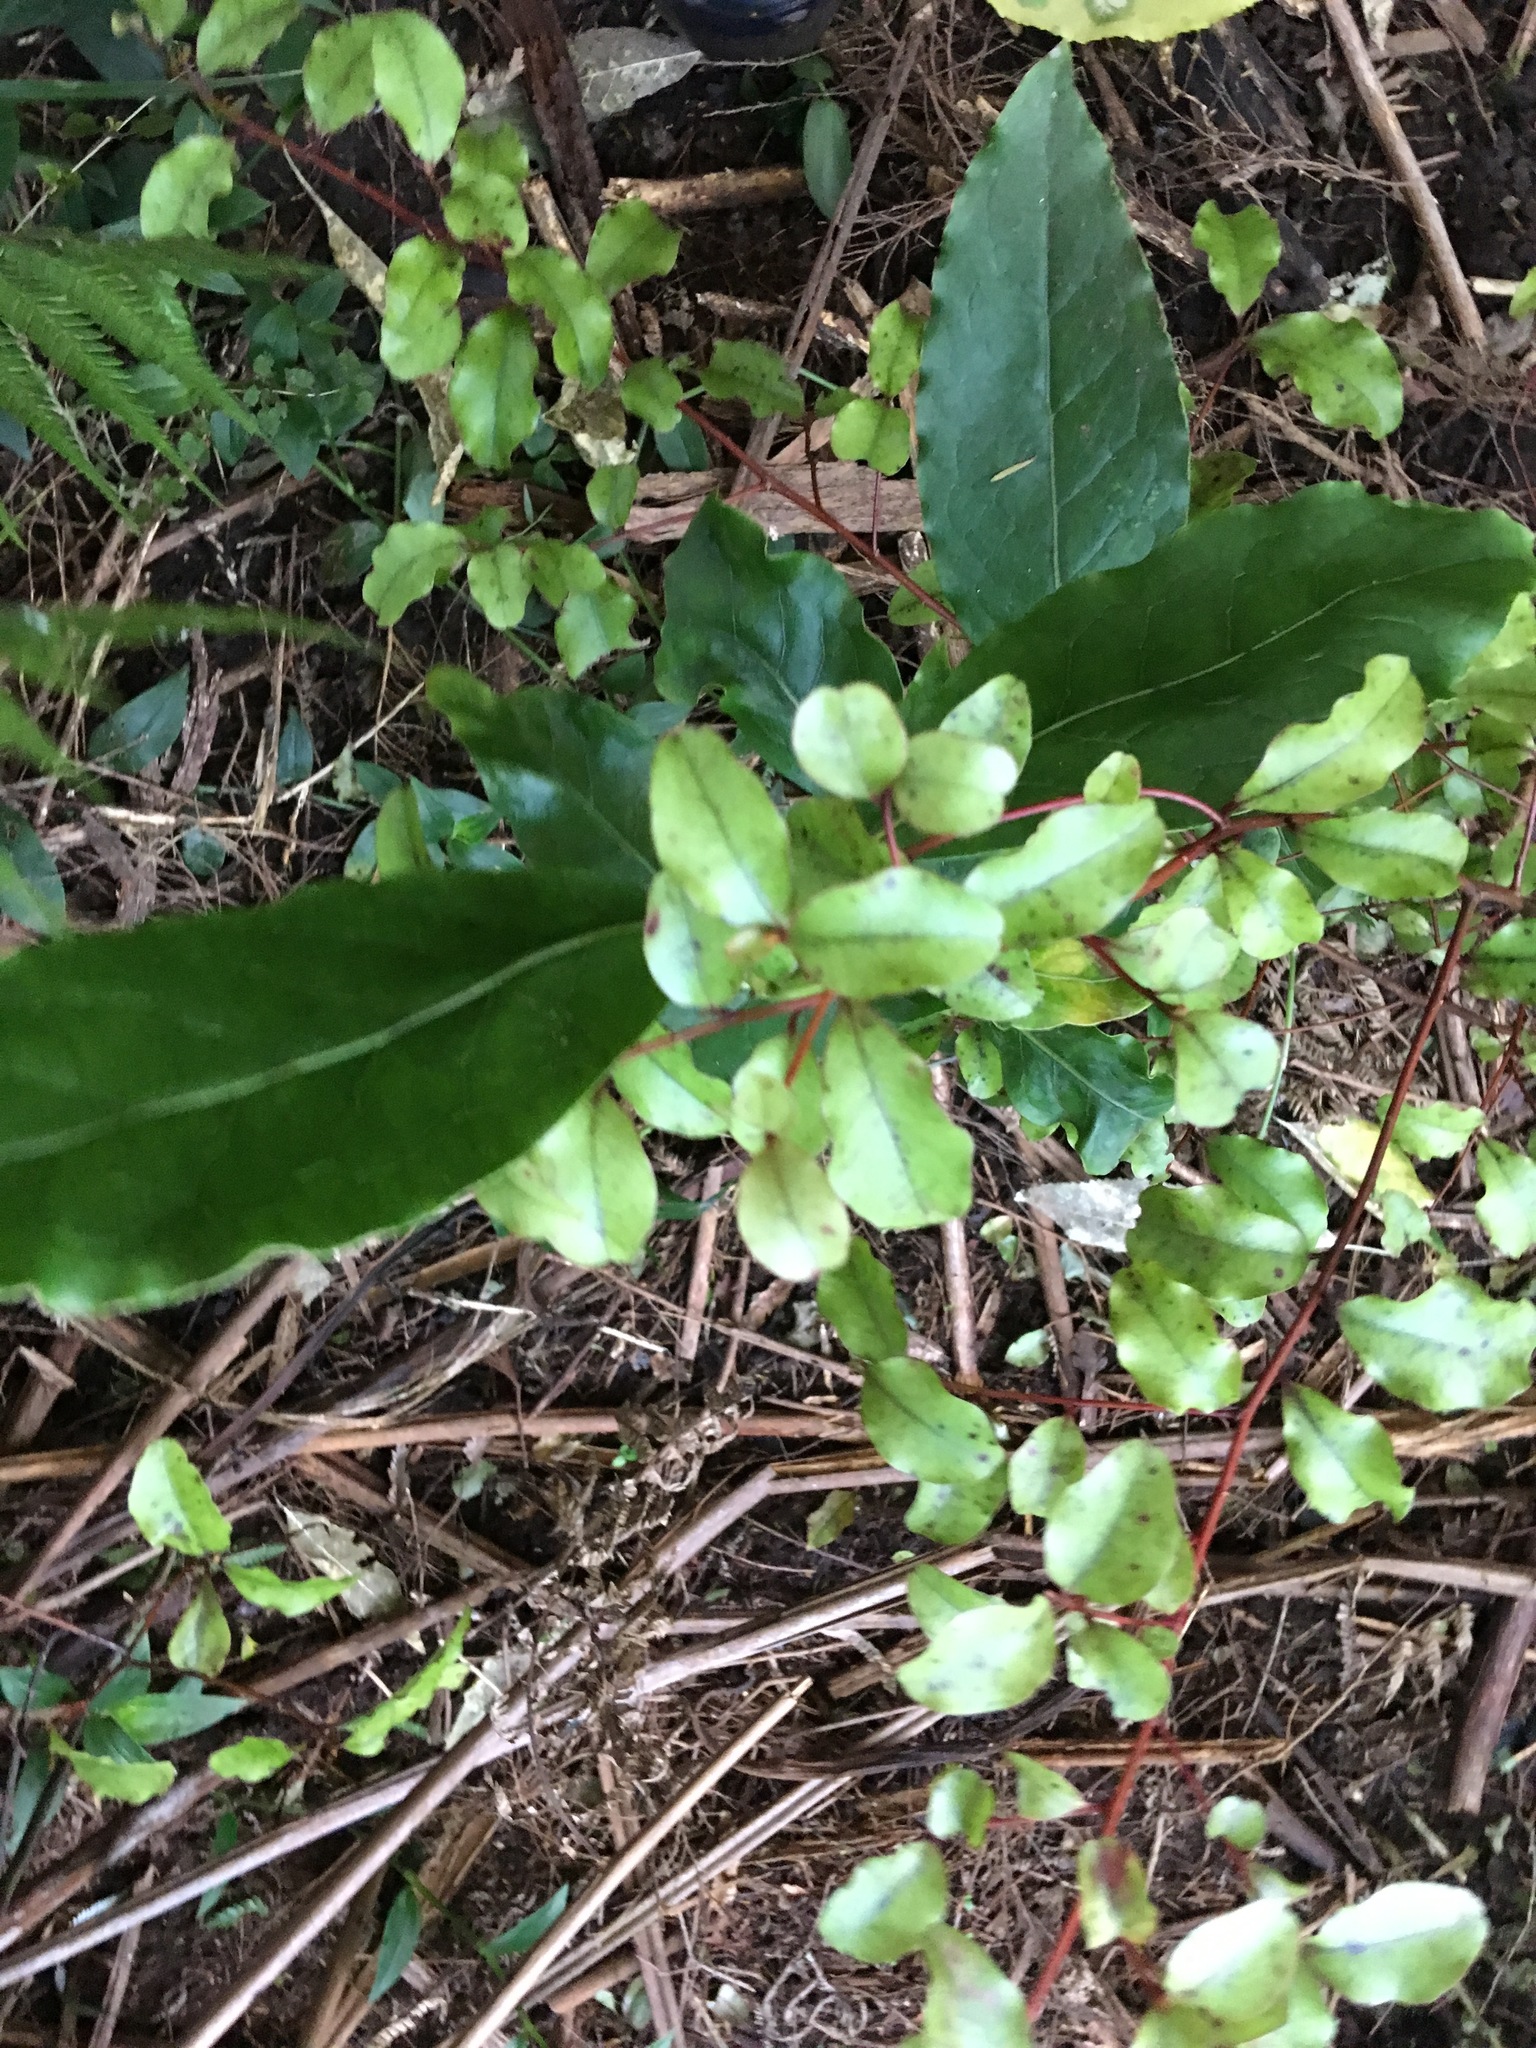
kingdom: Plantae
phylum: Tracheophyta
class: Magnoliopsida
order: Ericales
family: Primulaceae
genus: Myrsine
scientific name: Myrsine australis
